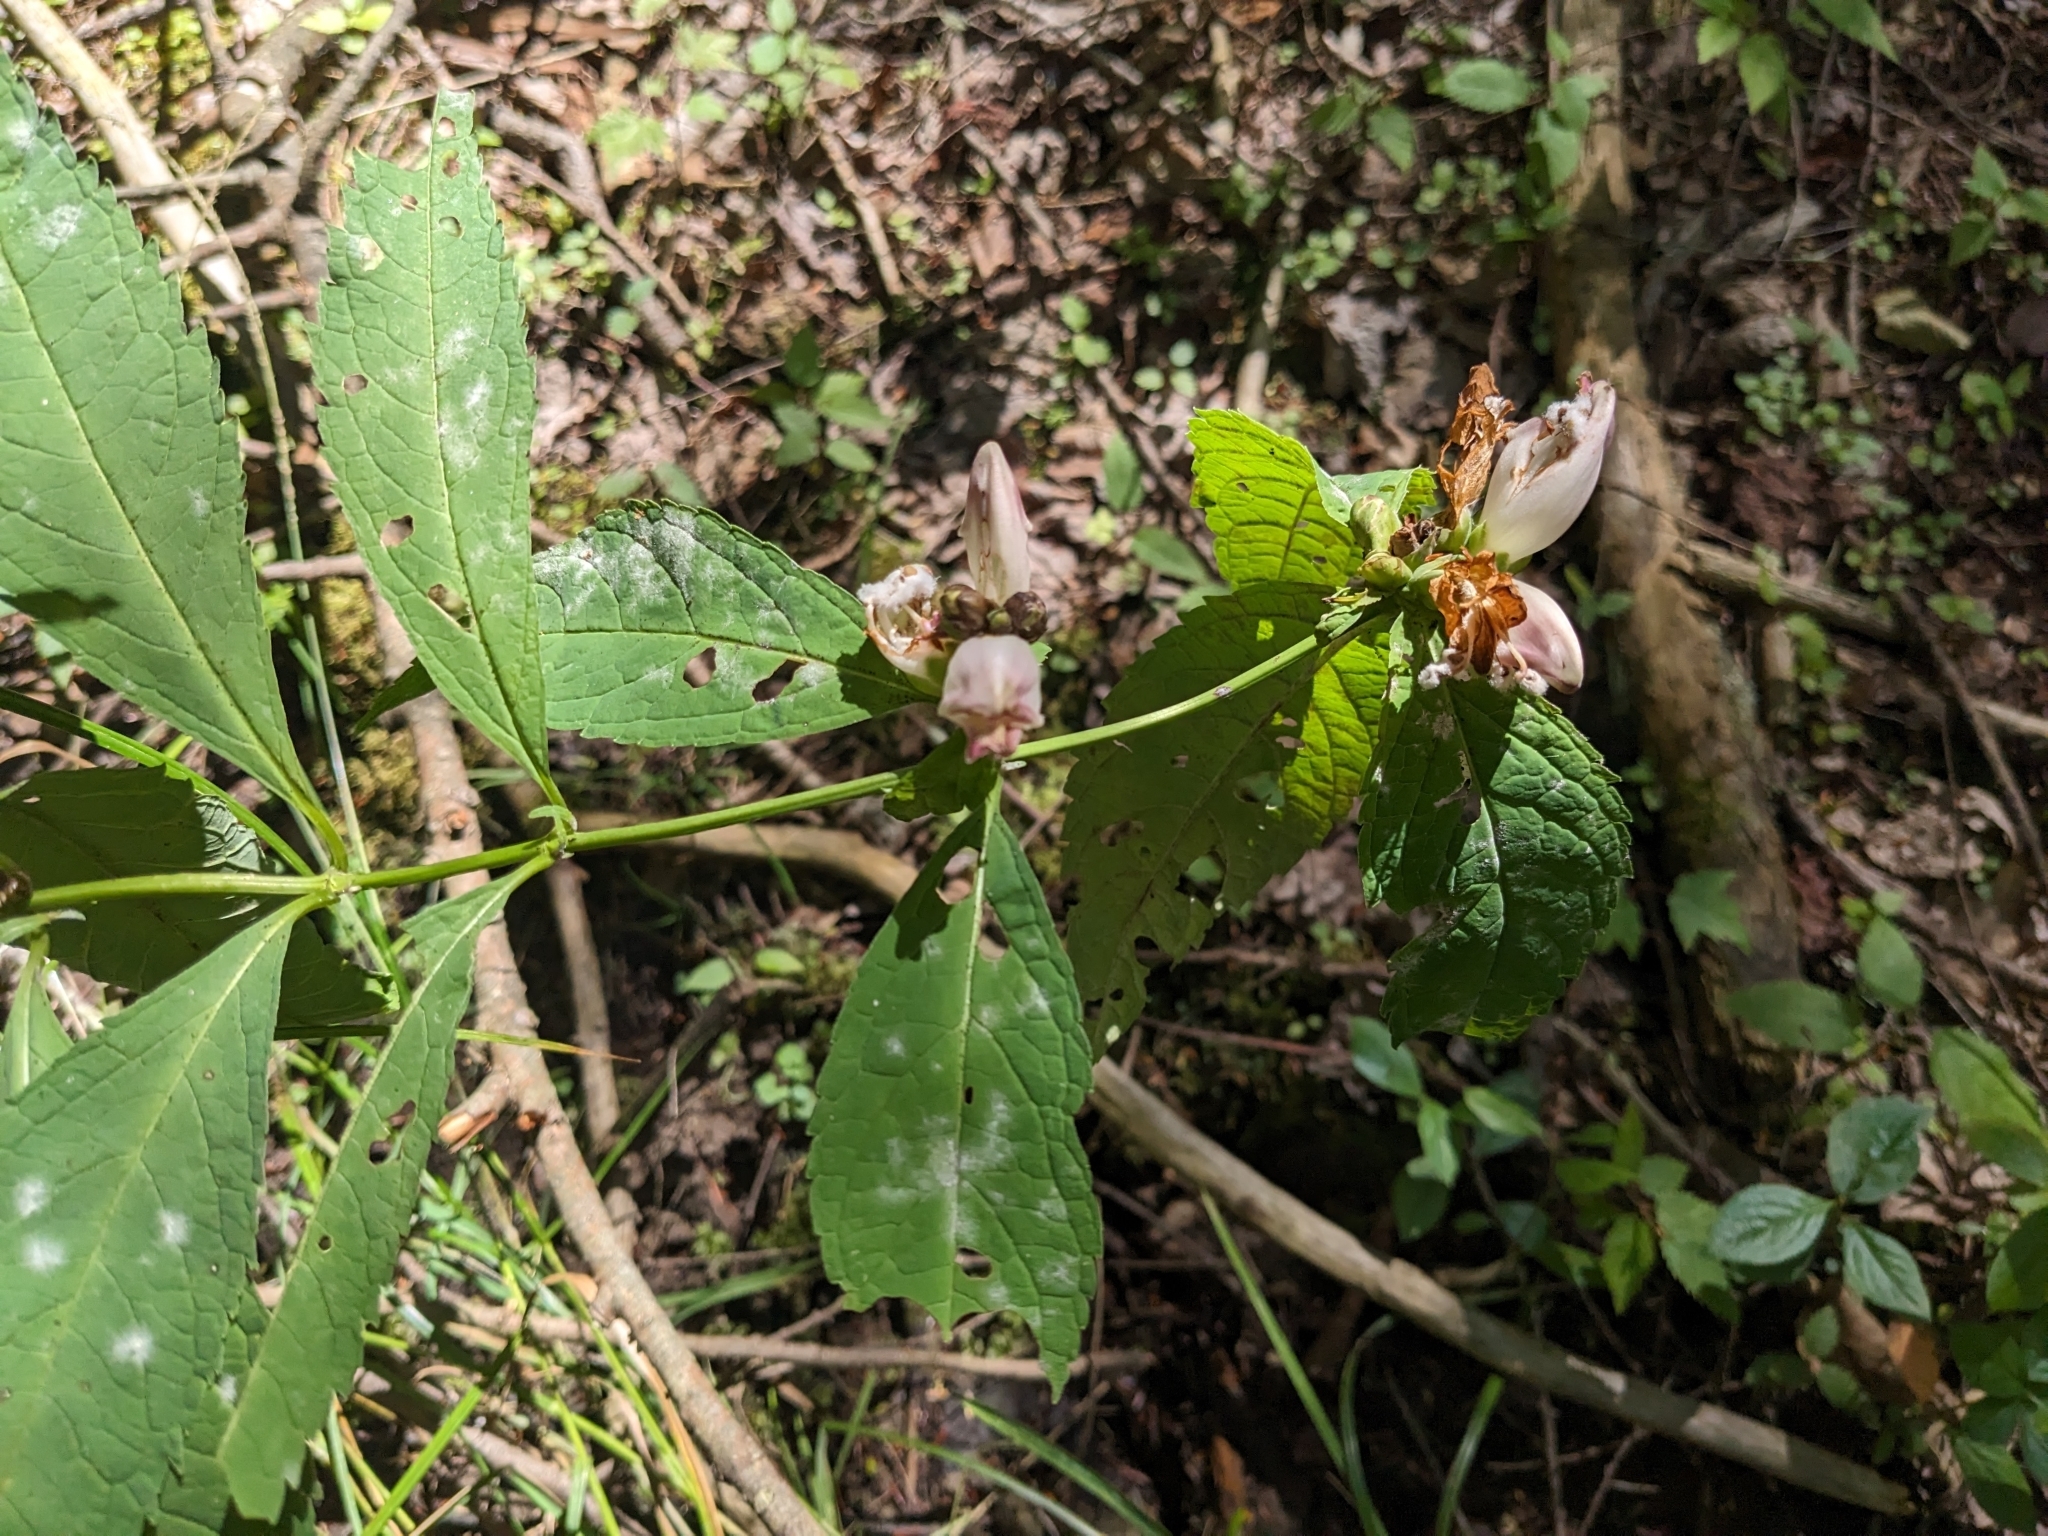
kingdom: Plantae
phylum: Tracheophyta
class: Magnoliopsida
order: Lamiales
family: Plantaginaceae
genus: Chelone
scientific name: Chelone glabra
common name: Snakehead
